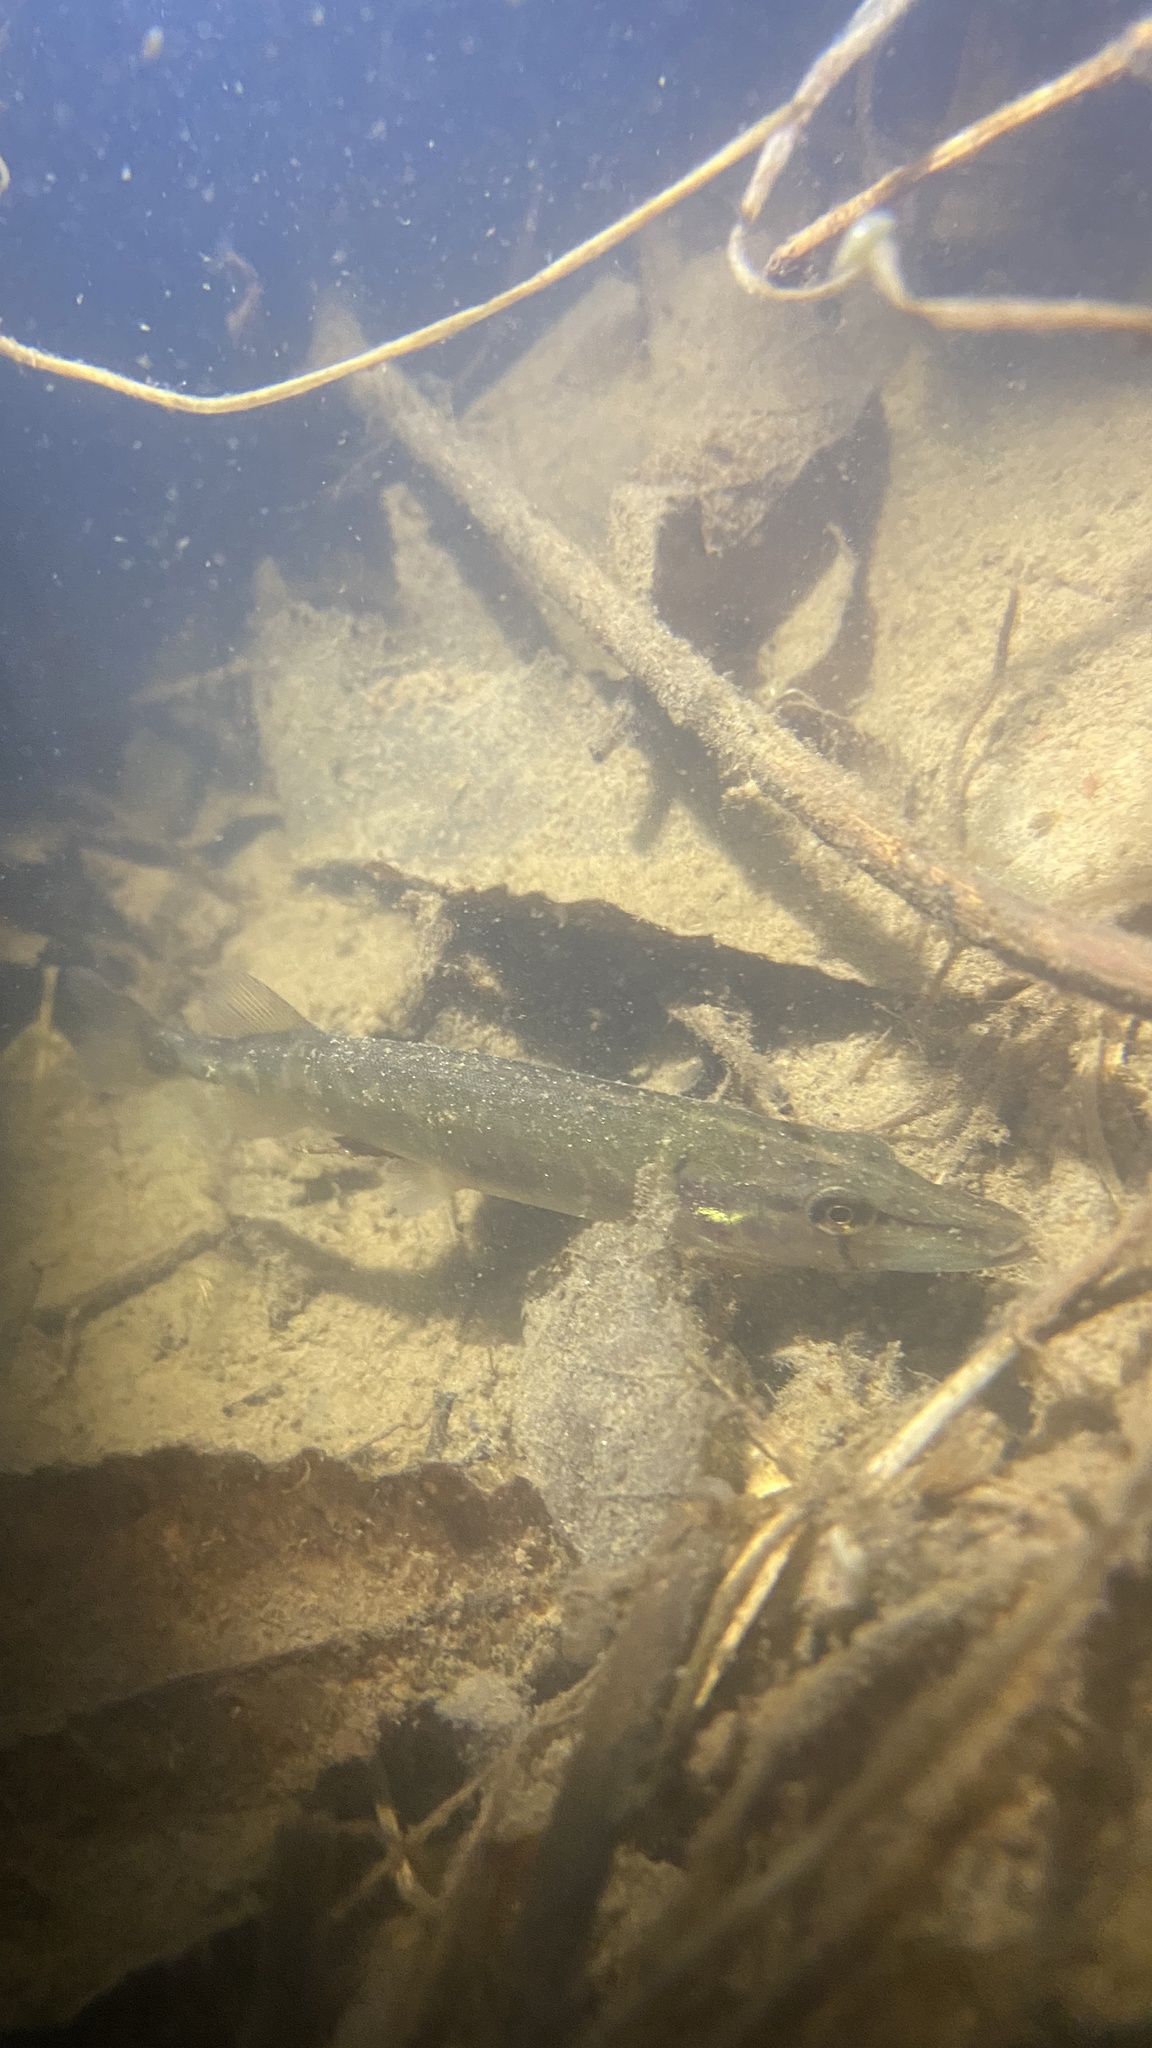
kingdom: Animalia
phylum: Chordata
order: Esociformes
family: Esocidae
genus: Esox
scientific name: Esox lucius
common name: Northern pike
